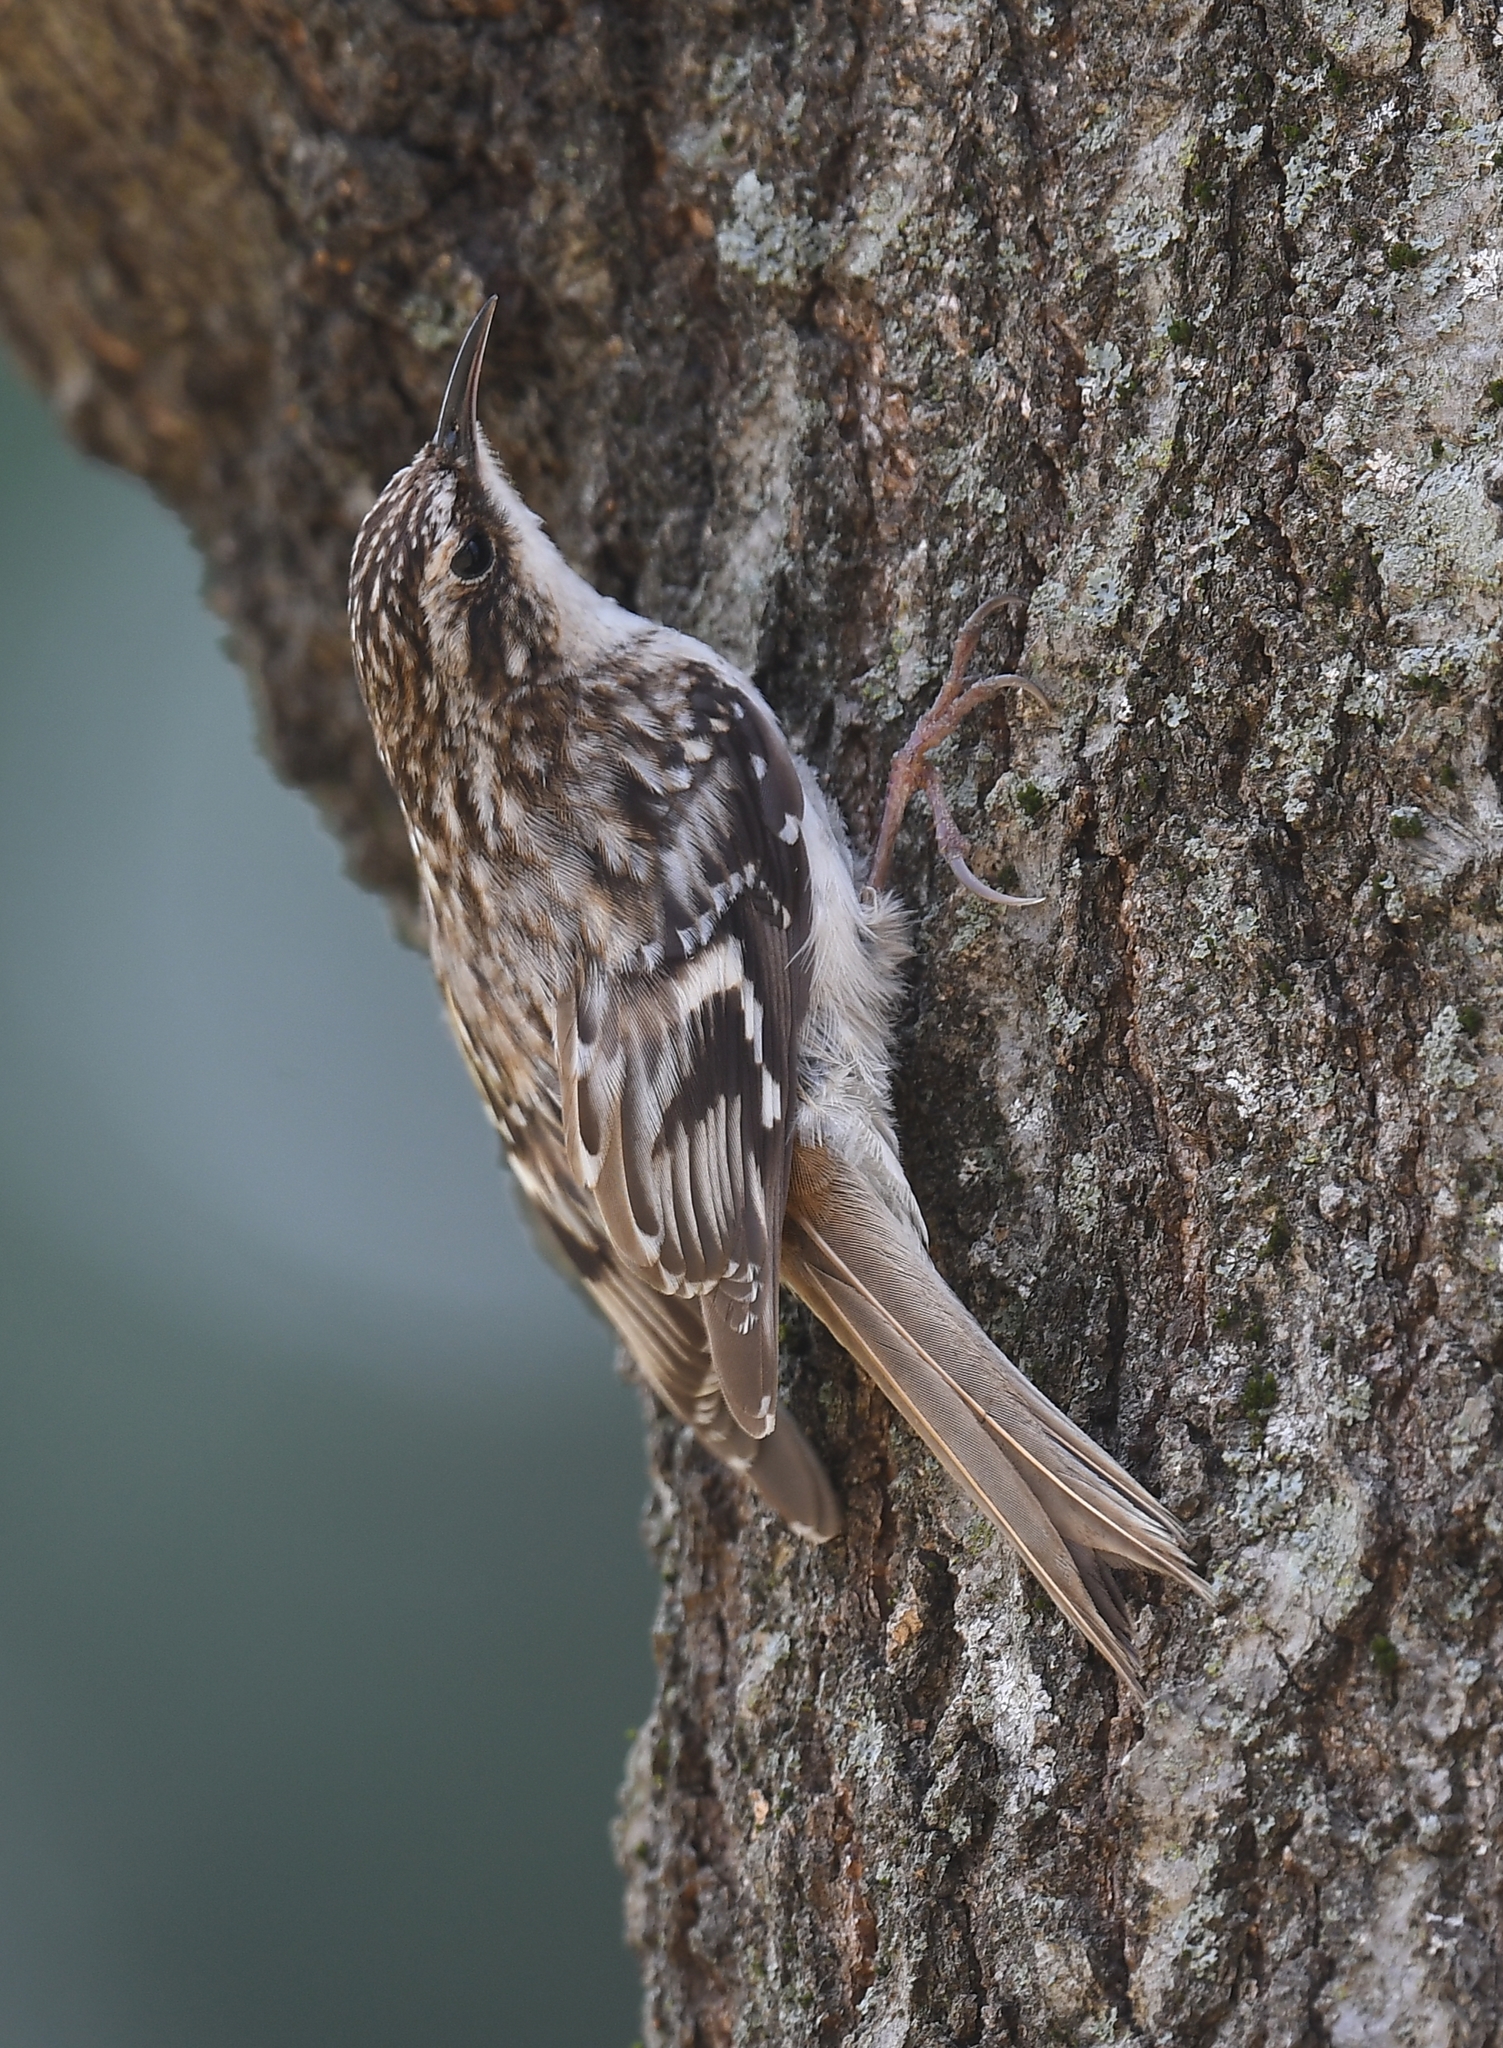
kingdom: Animalia
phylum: Chordata
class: Aves
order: Passeriformes
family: Certhiidae
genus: Certhia
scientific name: Certhia americana
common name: Brown creeper
